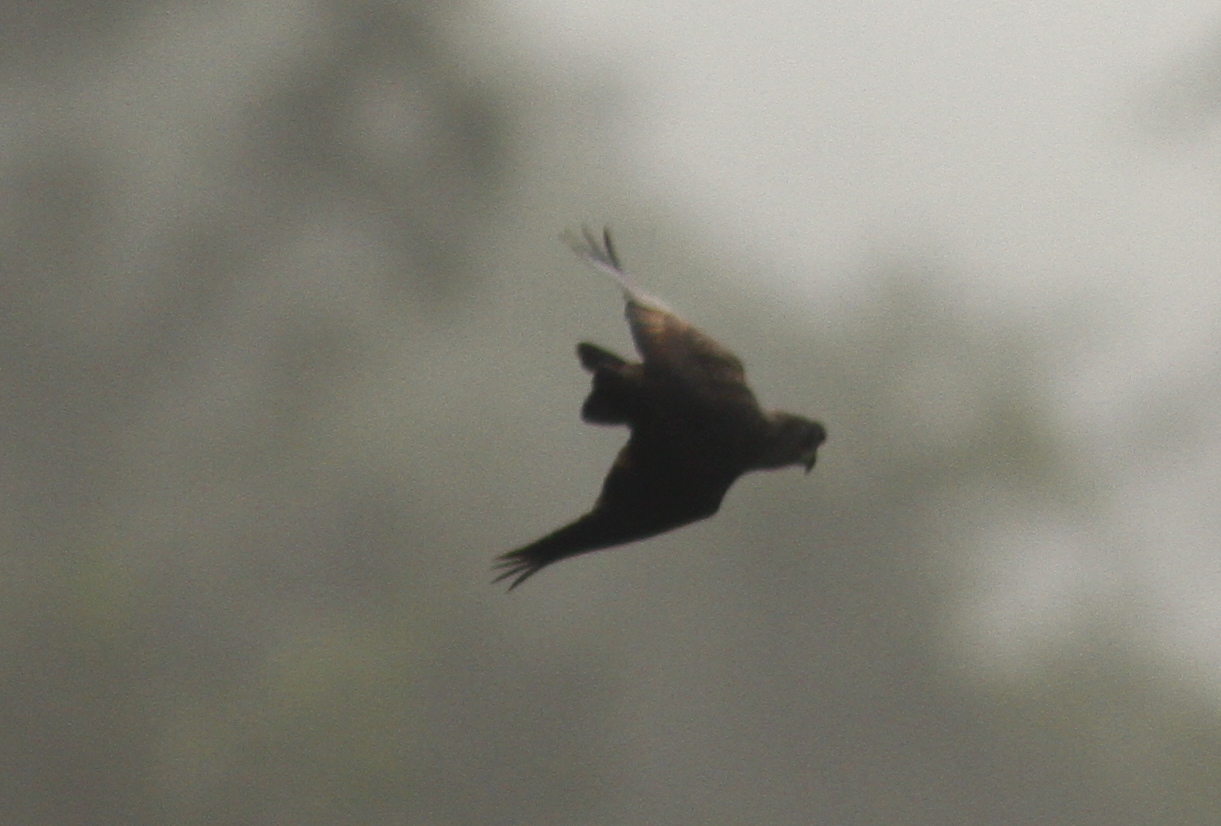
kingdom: Animalia
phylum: Chordata
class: Aves
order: Psittaciformes
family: Psittacidae
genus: Pionus
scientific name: Pionus fuscus
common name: Dusky parrot
